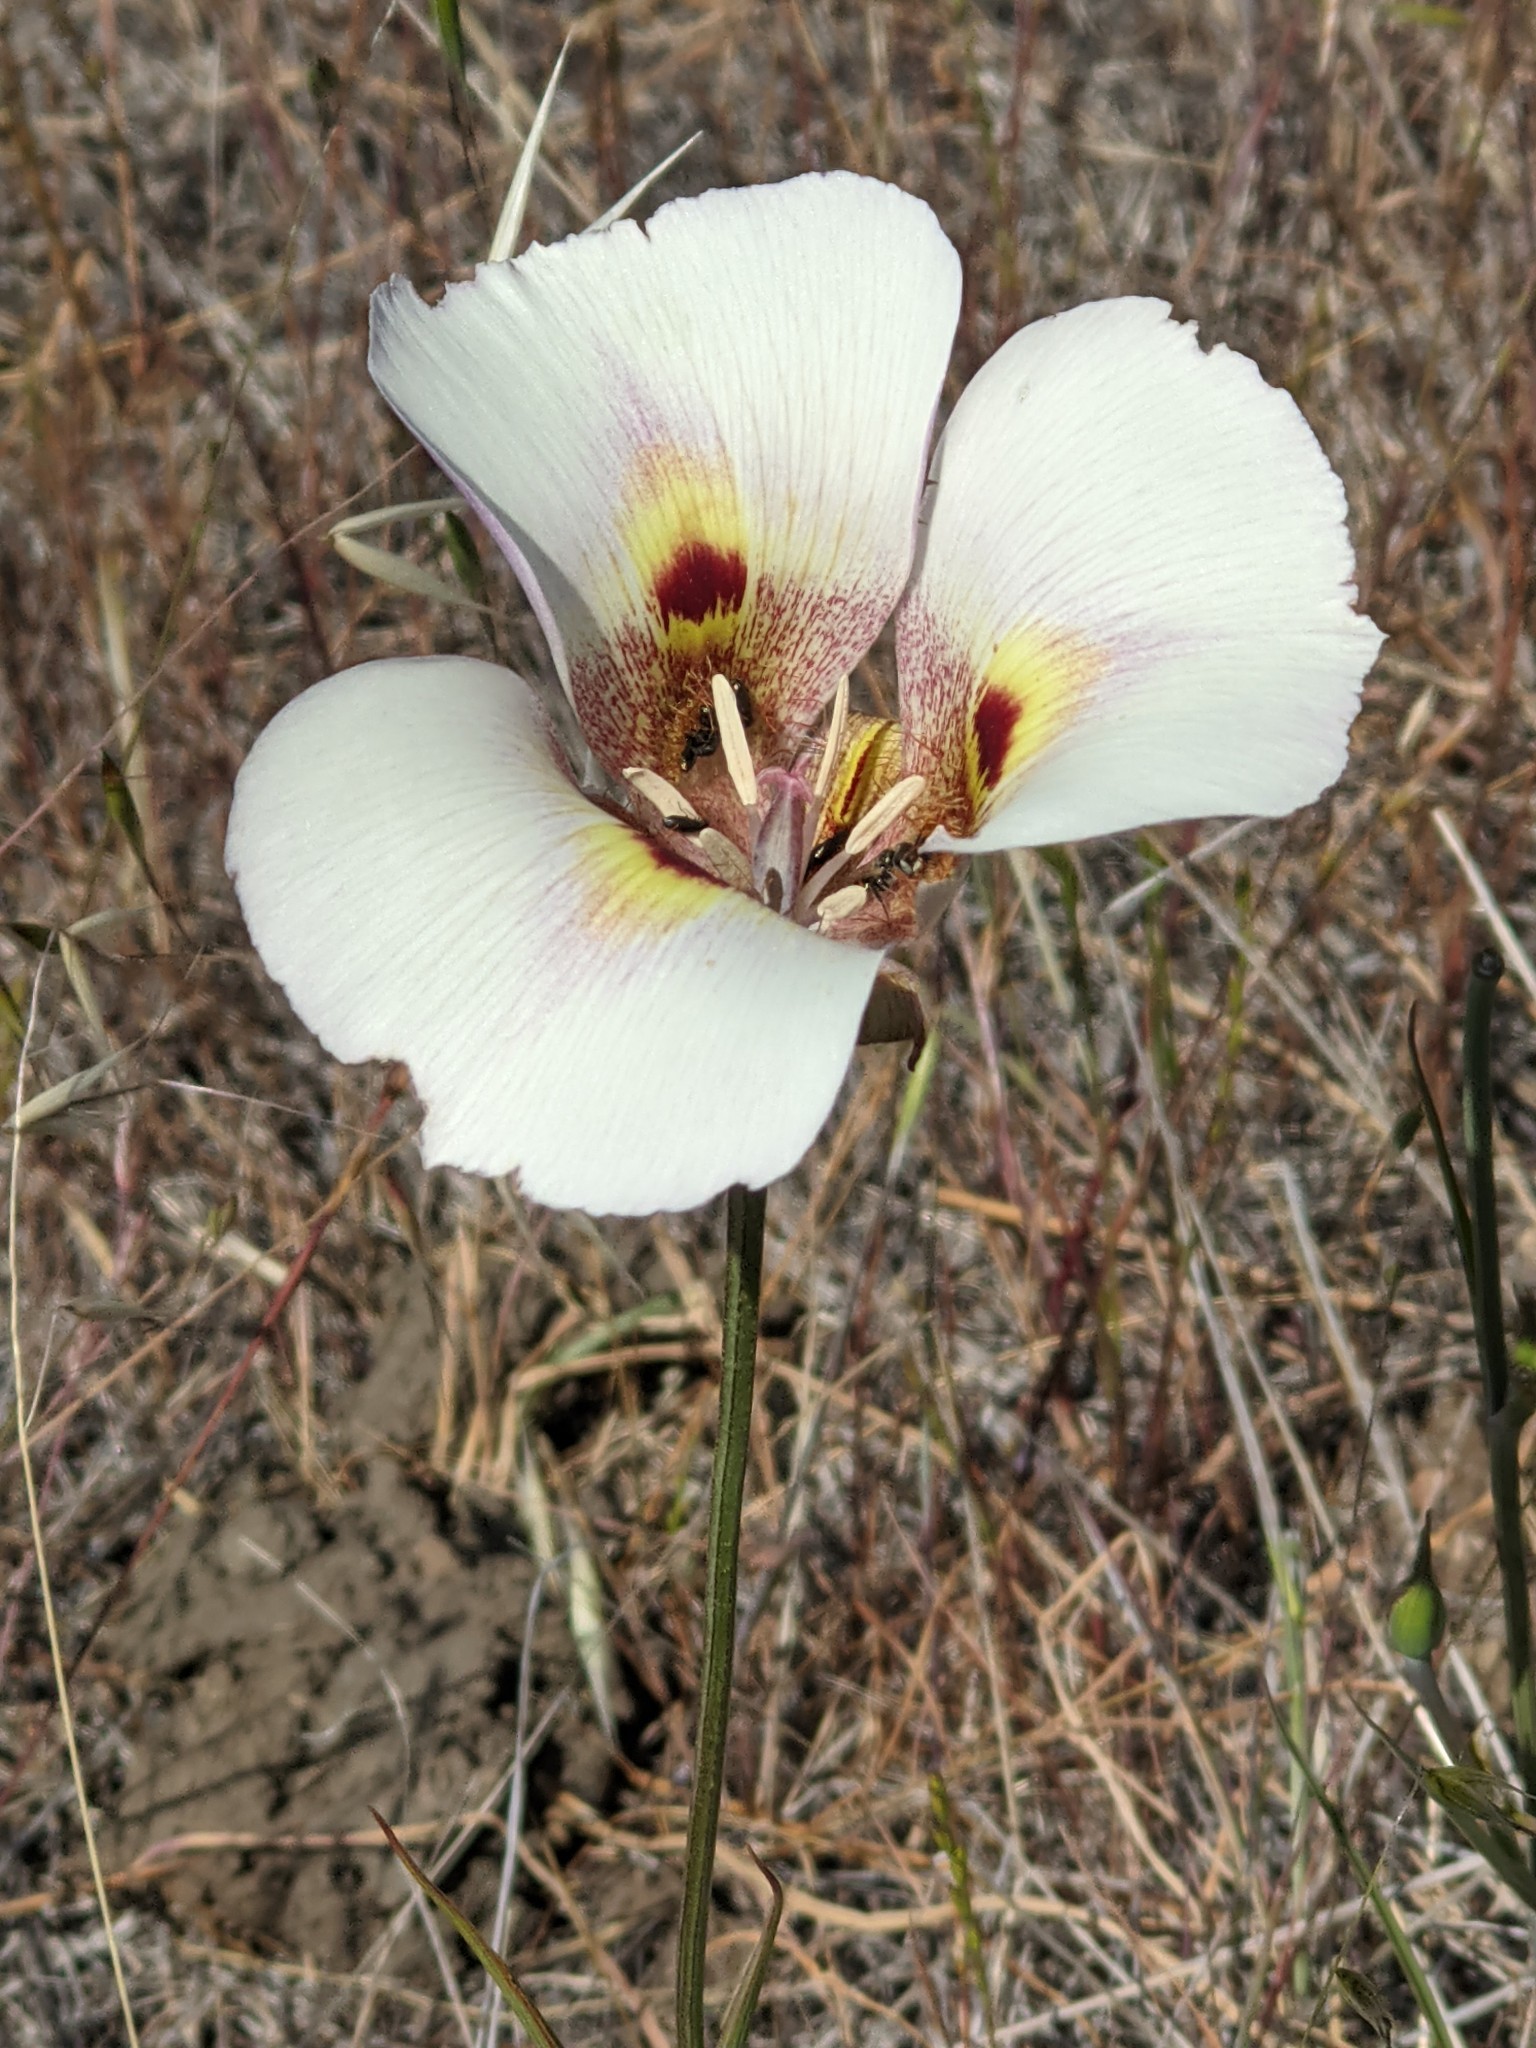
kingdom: Plantae
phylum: Tracheophyta
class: Liliopsida
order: Liliales
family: Liliaceae
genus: Calochortus
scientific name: Calochortus argillosus
